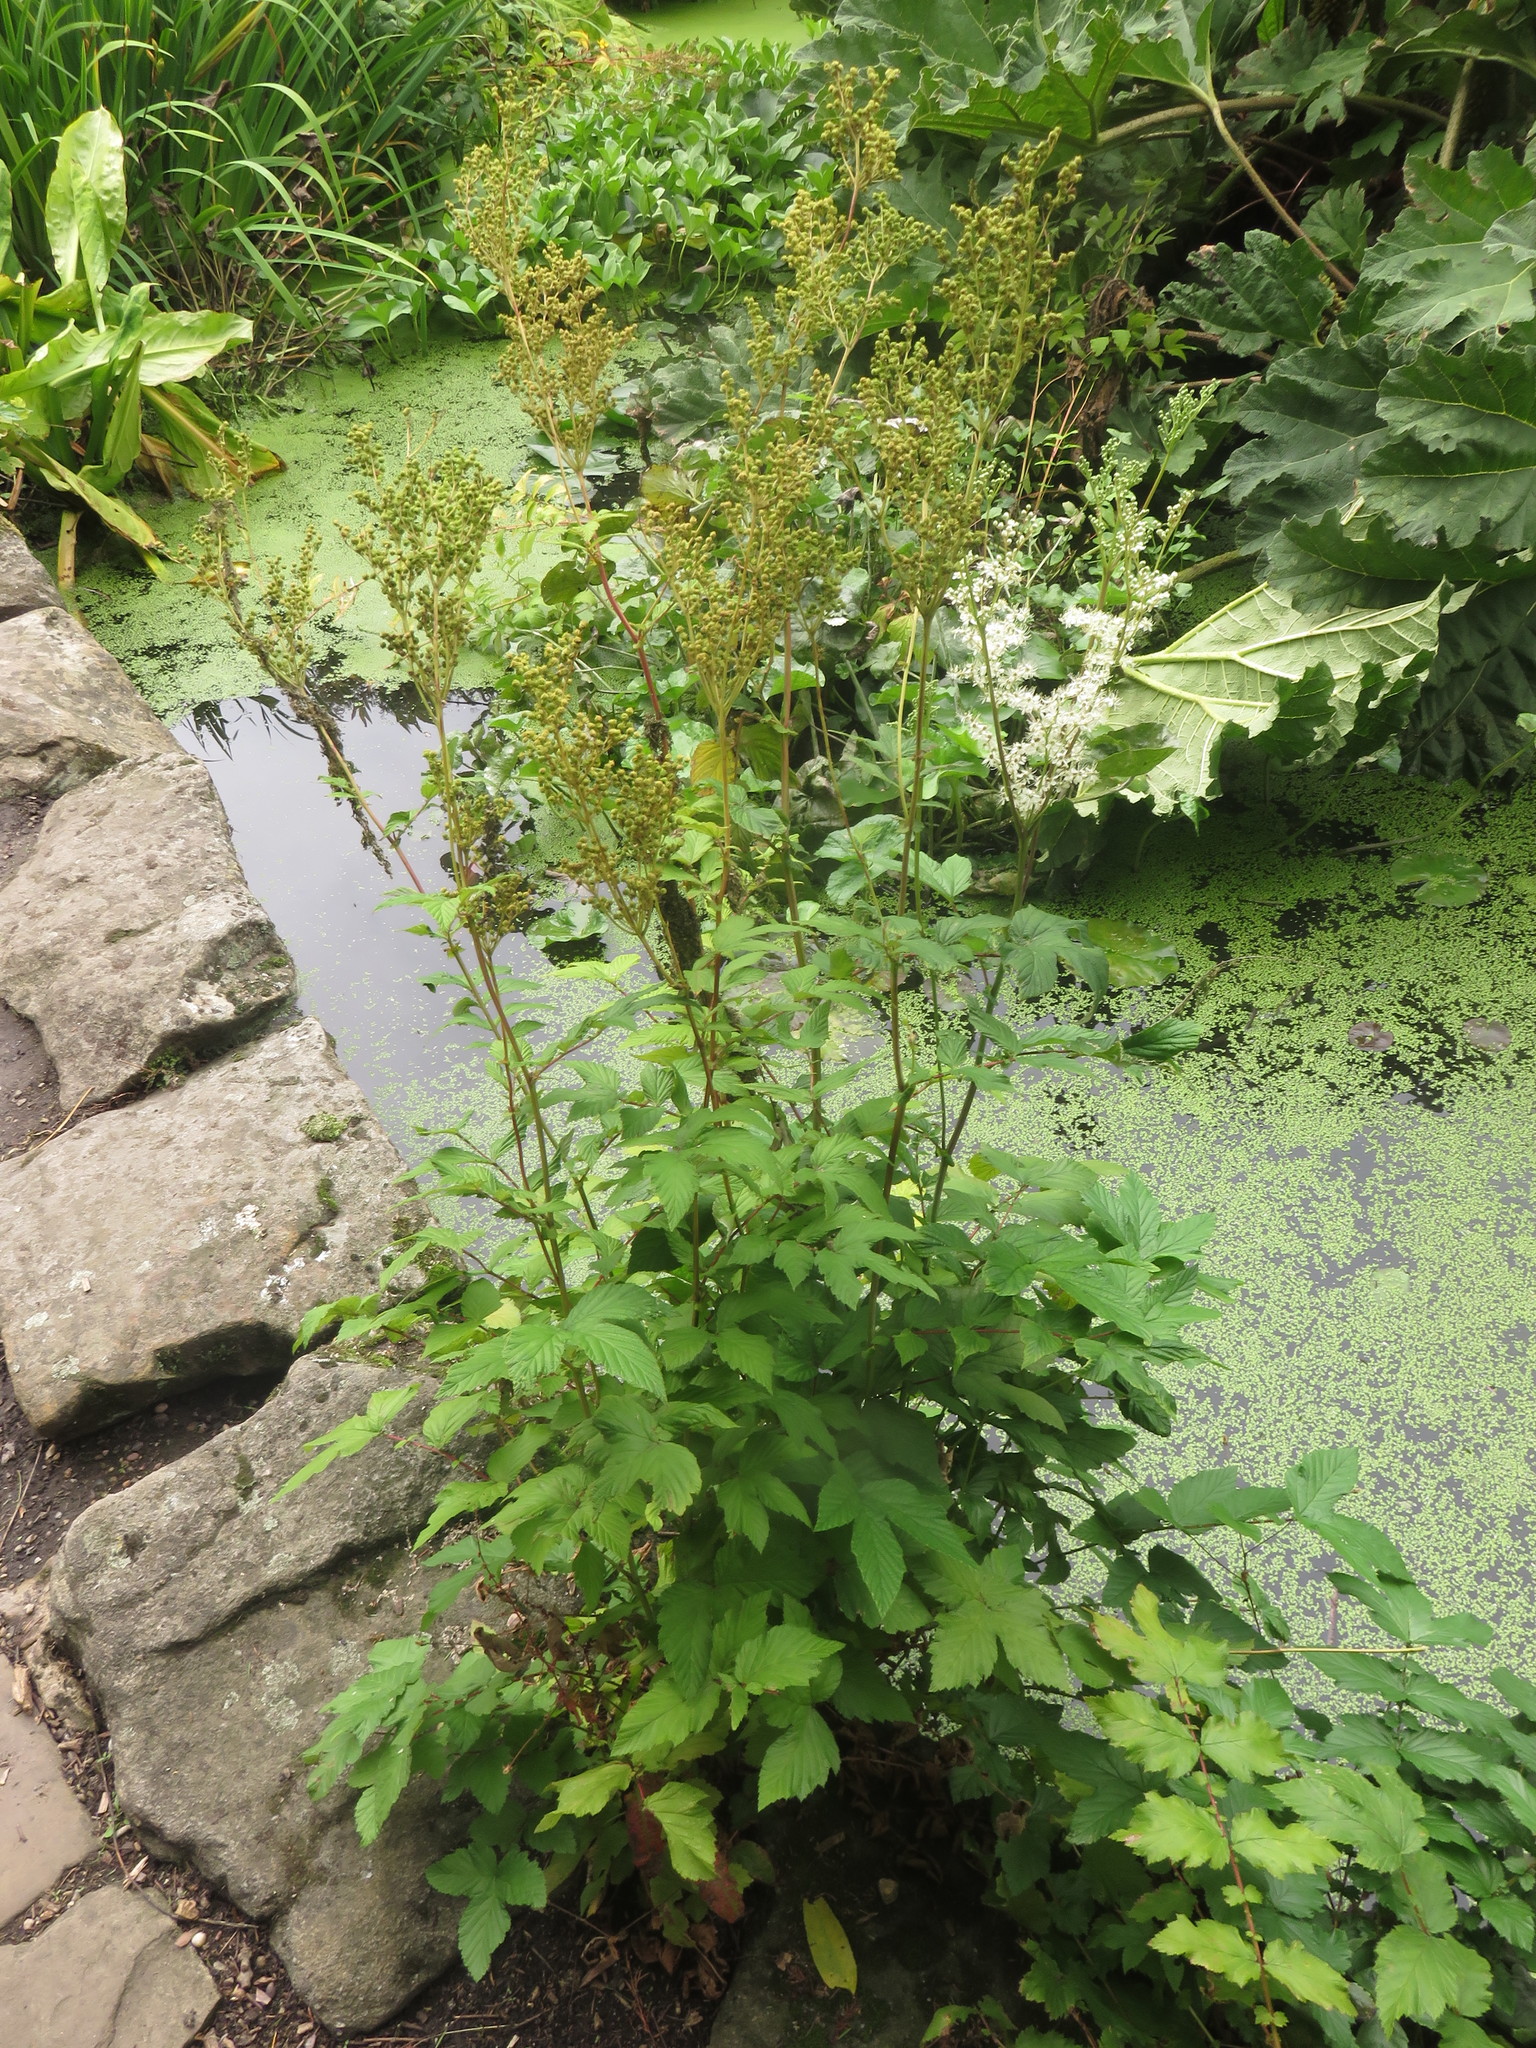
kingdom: Plantae
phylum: Tracheophyta
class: Magnoliopsida
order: Rosales
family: Rosaceae
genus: Filipendula
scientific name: Filipendula ulmaria
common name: Meadowsweet
